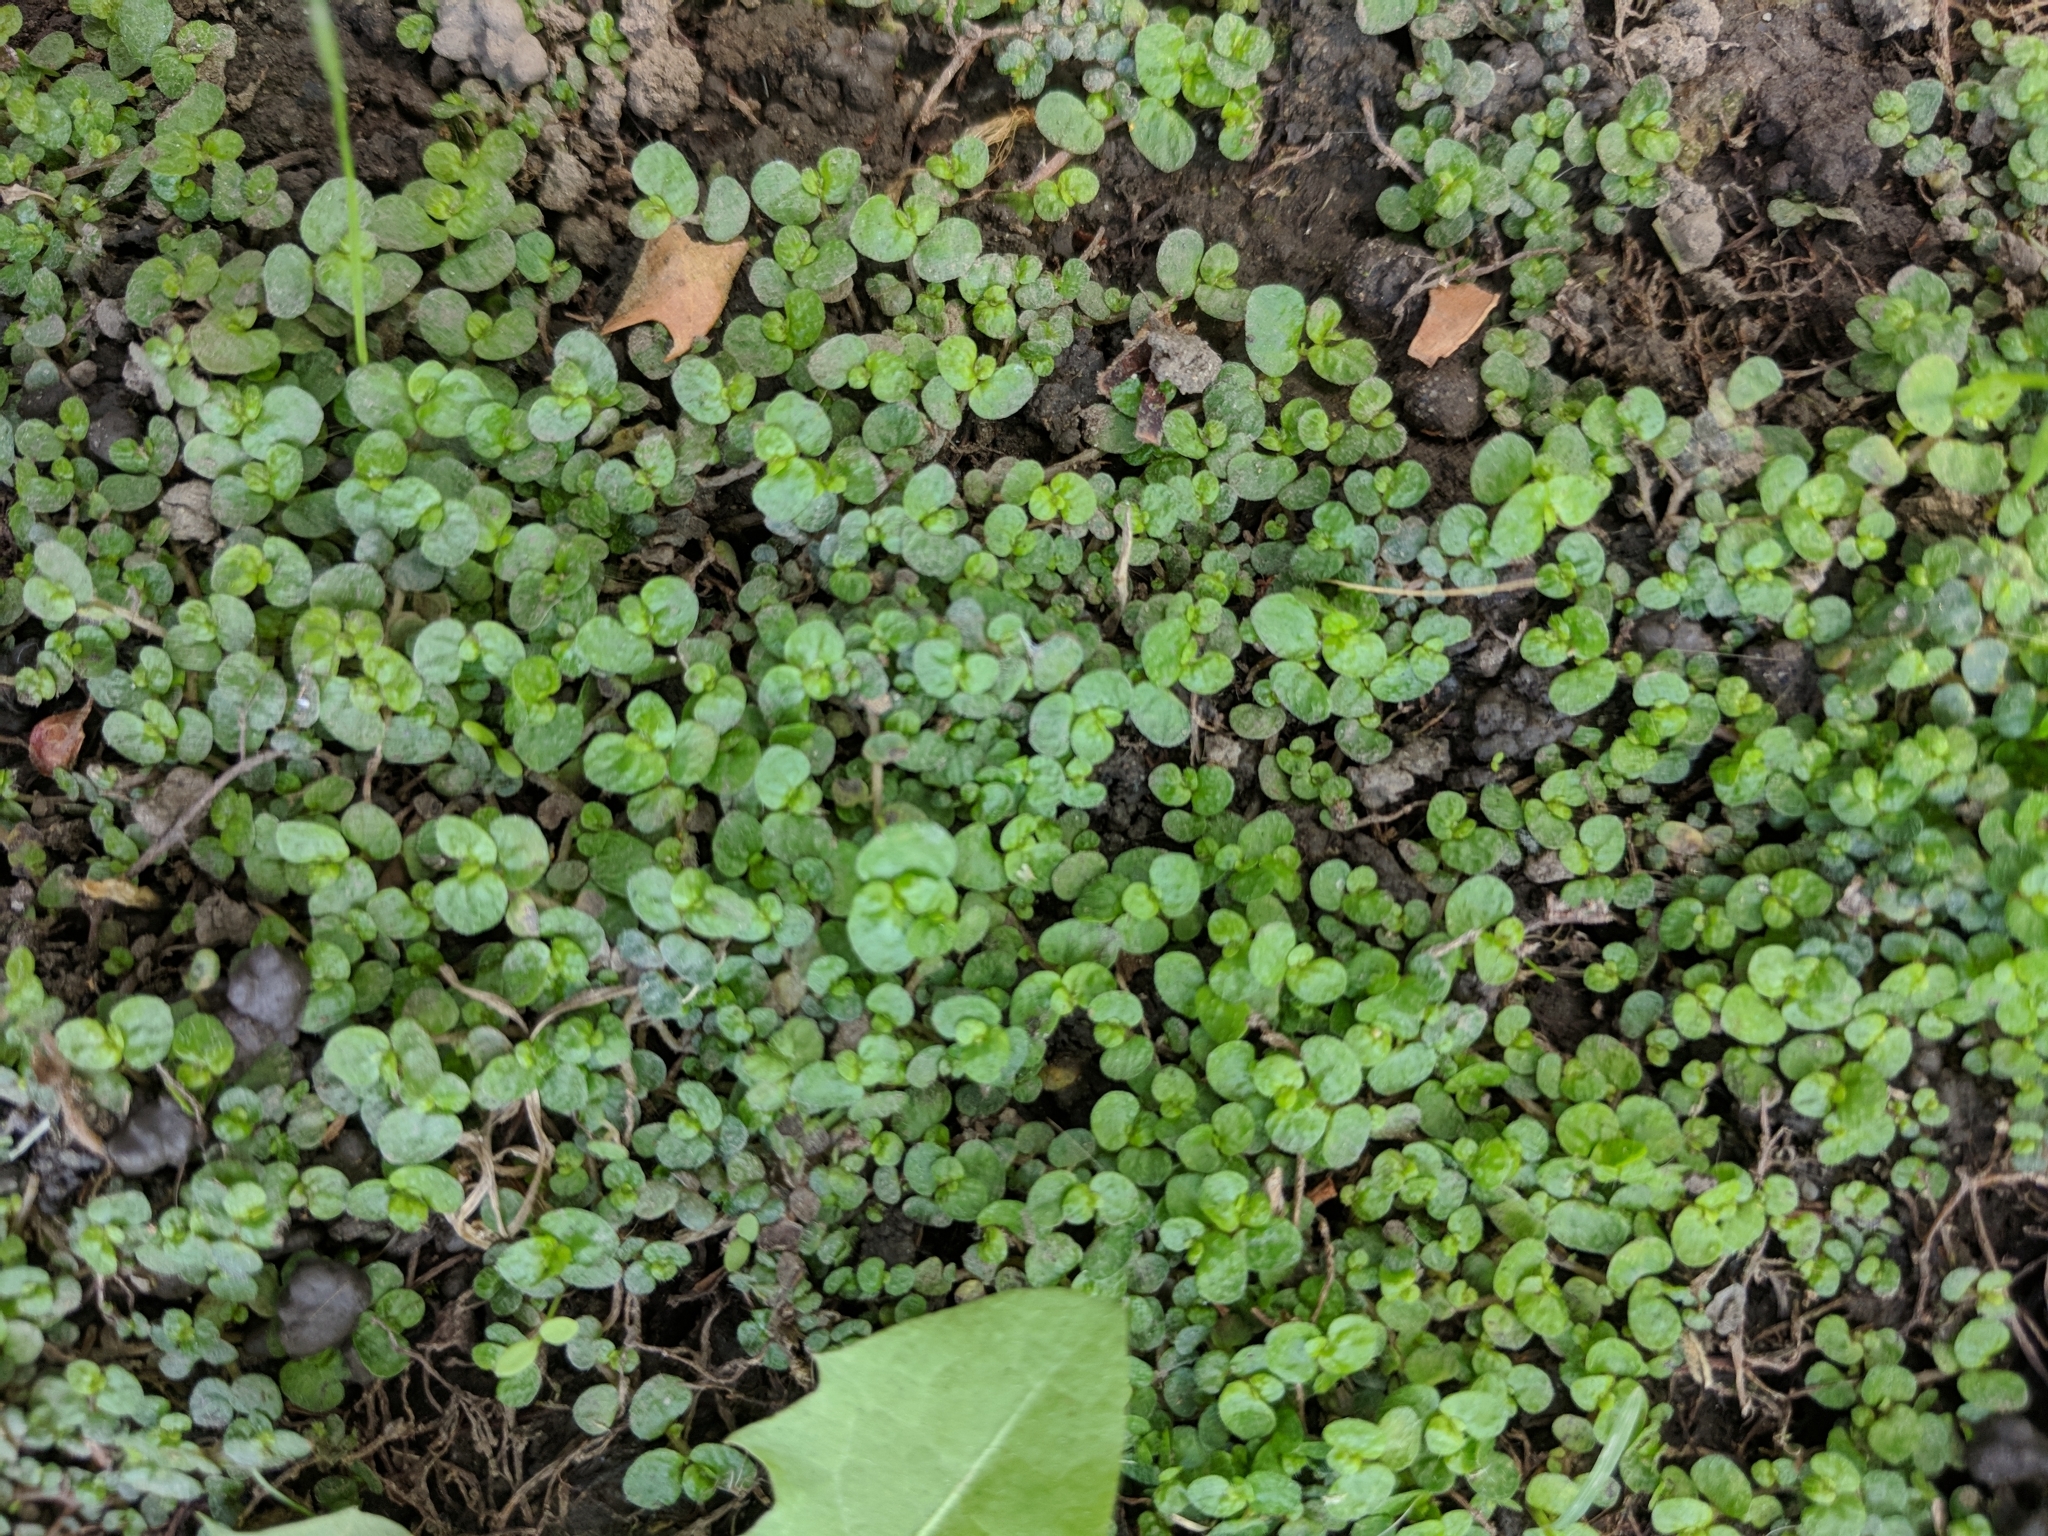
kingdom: Plantae
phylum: Tracheophyta
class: Magnoliopsida
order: Rosales
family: Urticaceae
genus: Soleirolia
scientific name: Soleirolia soleirolii
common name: Mind-your-own-business
